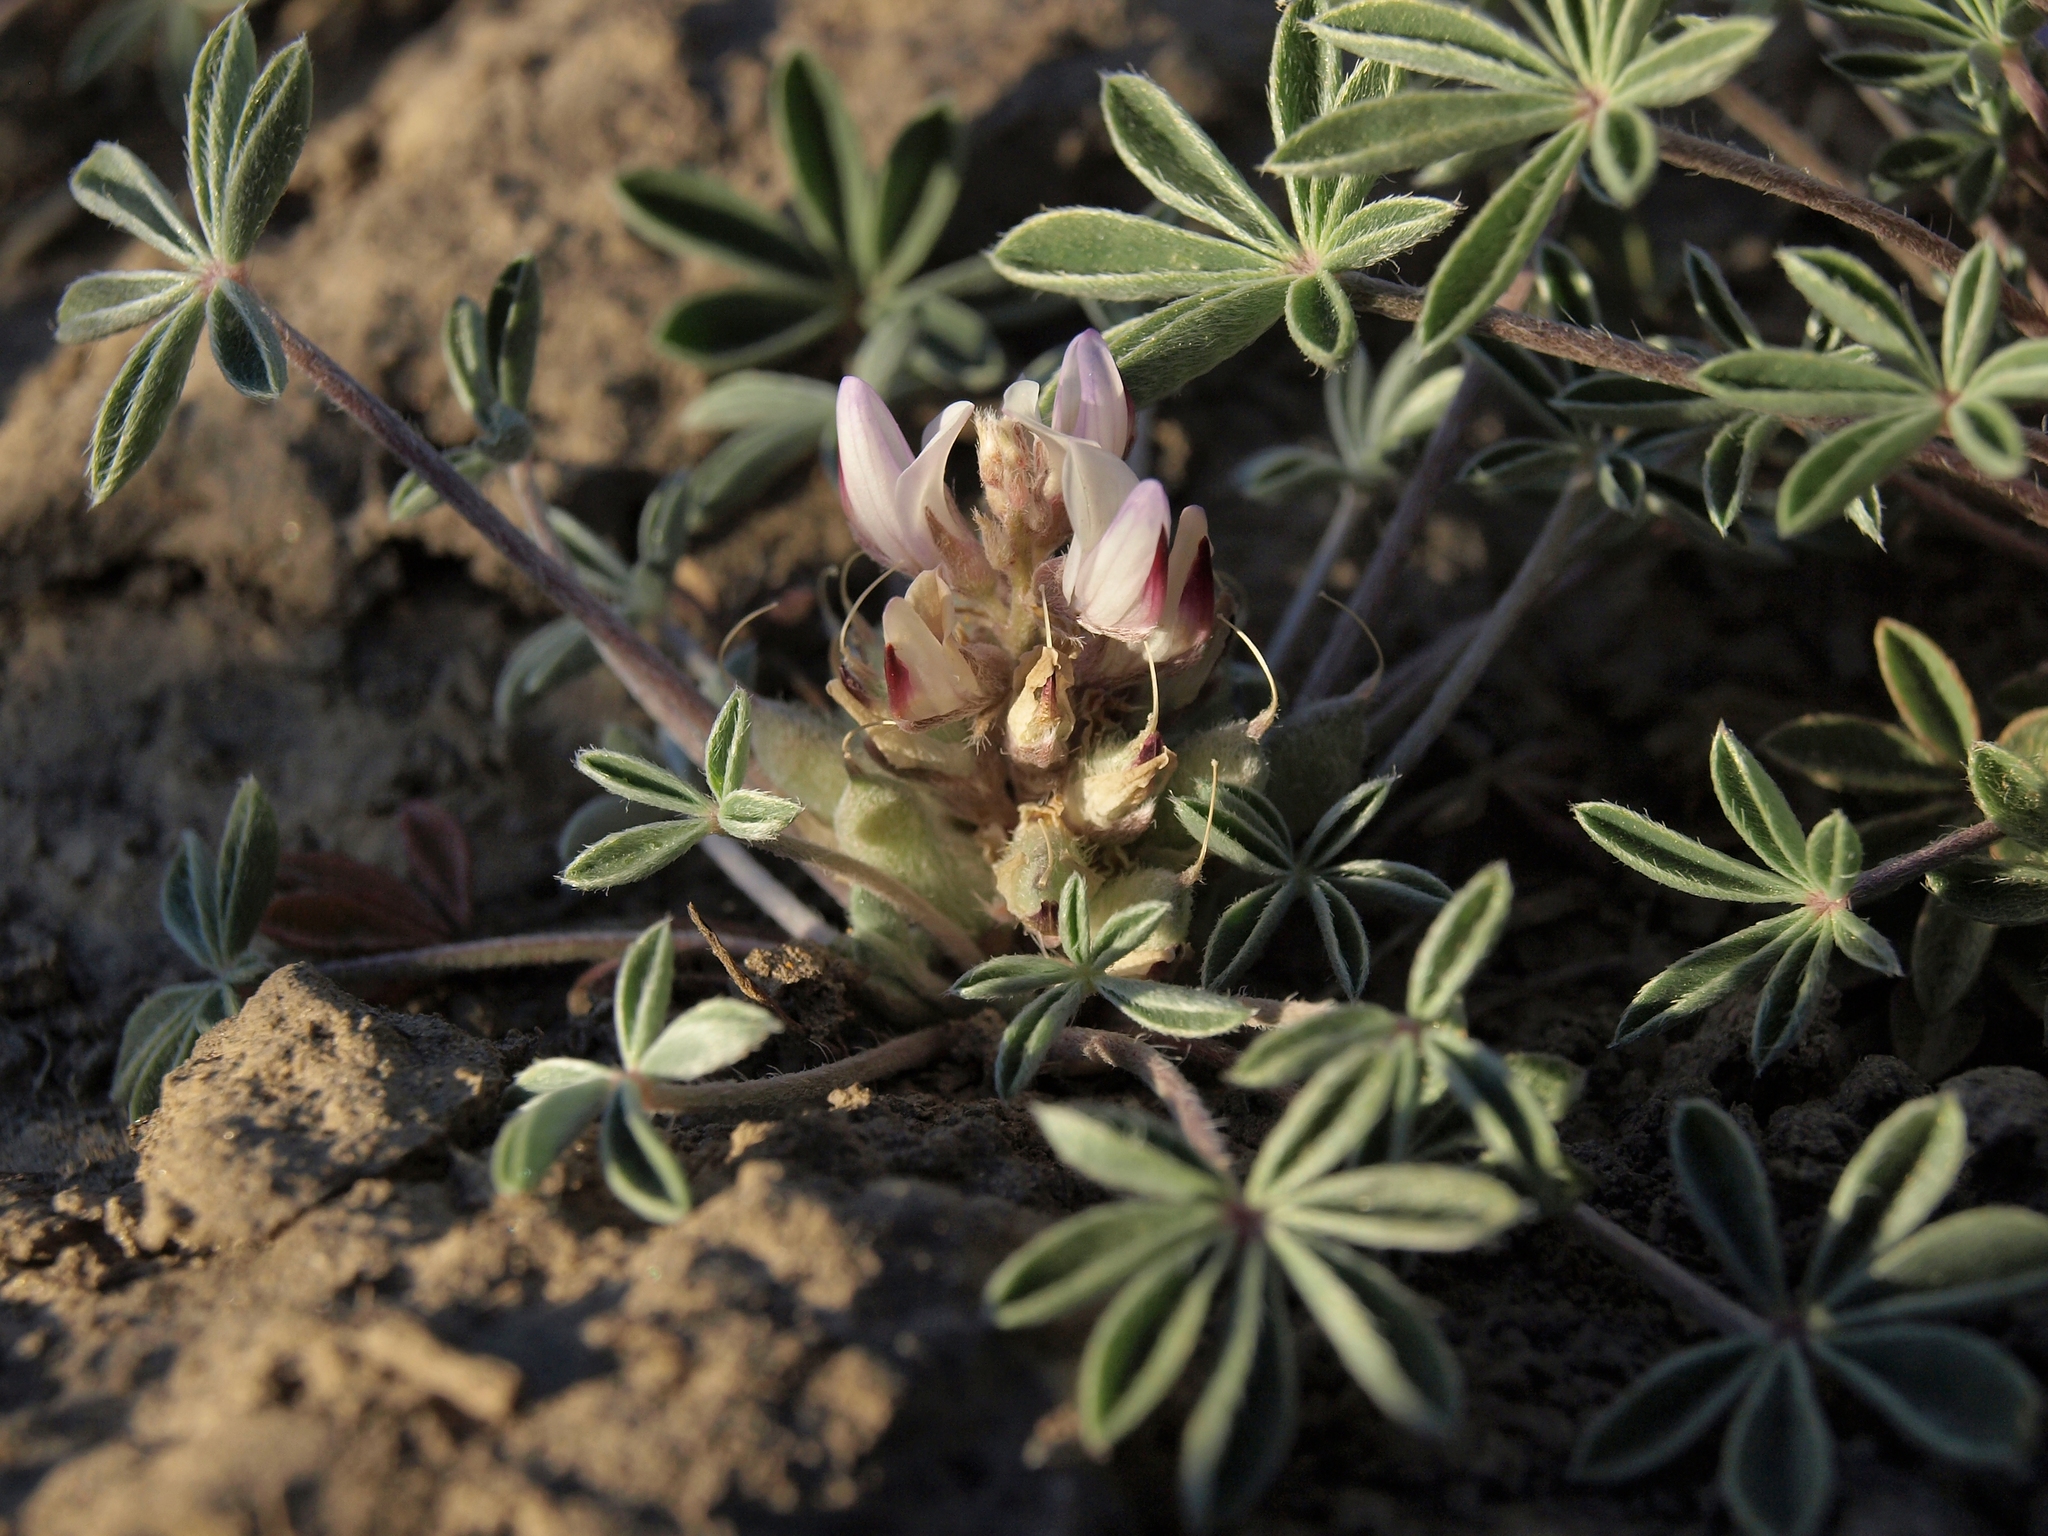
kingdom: Plantae
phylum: Tracheophyta
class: Magnoliopsida
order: Fabales
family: Fabaceae
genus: Lupinus
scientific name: Lupinus caespitosus
